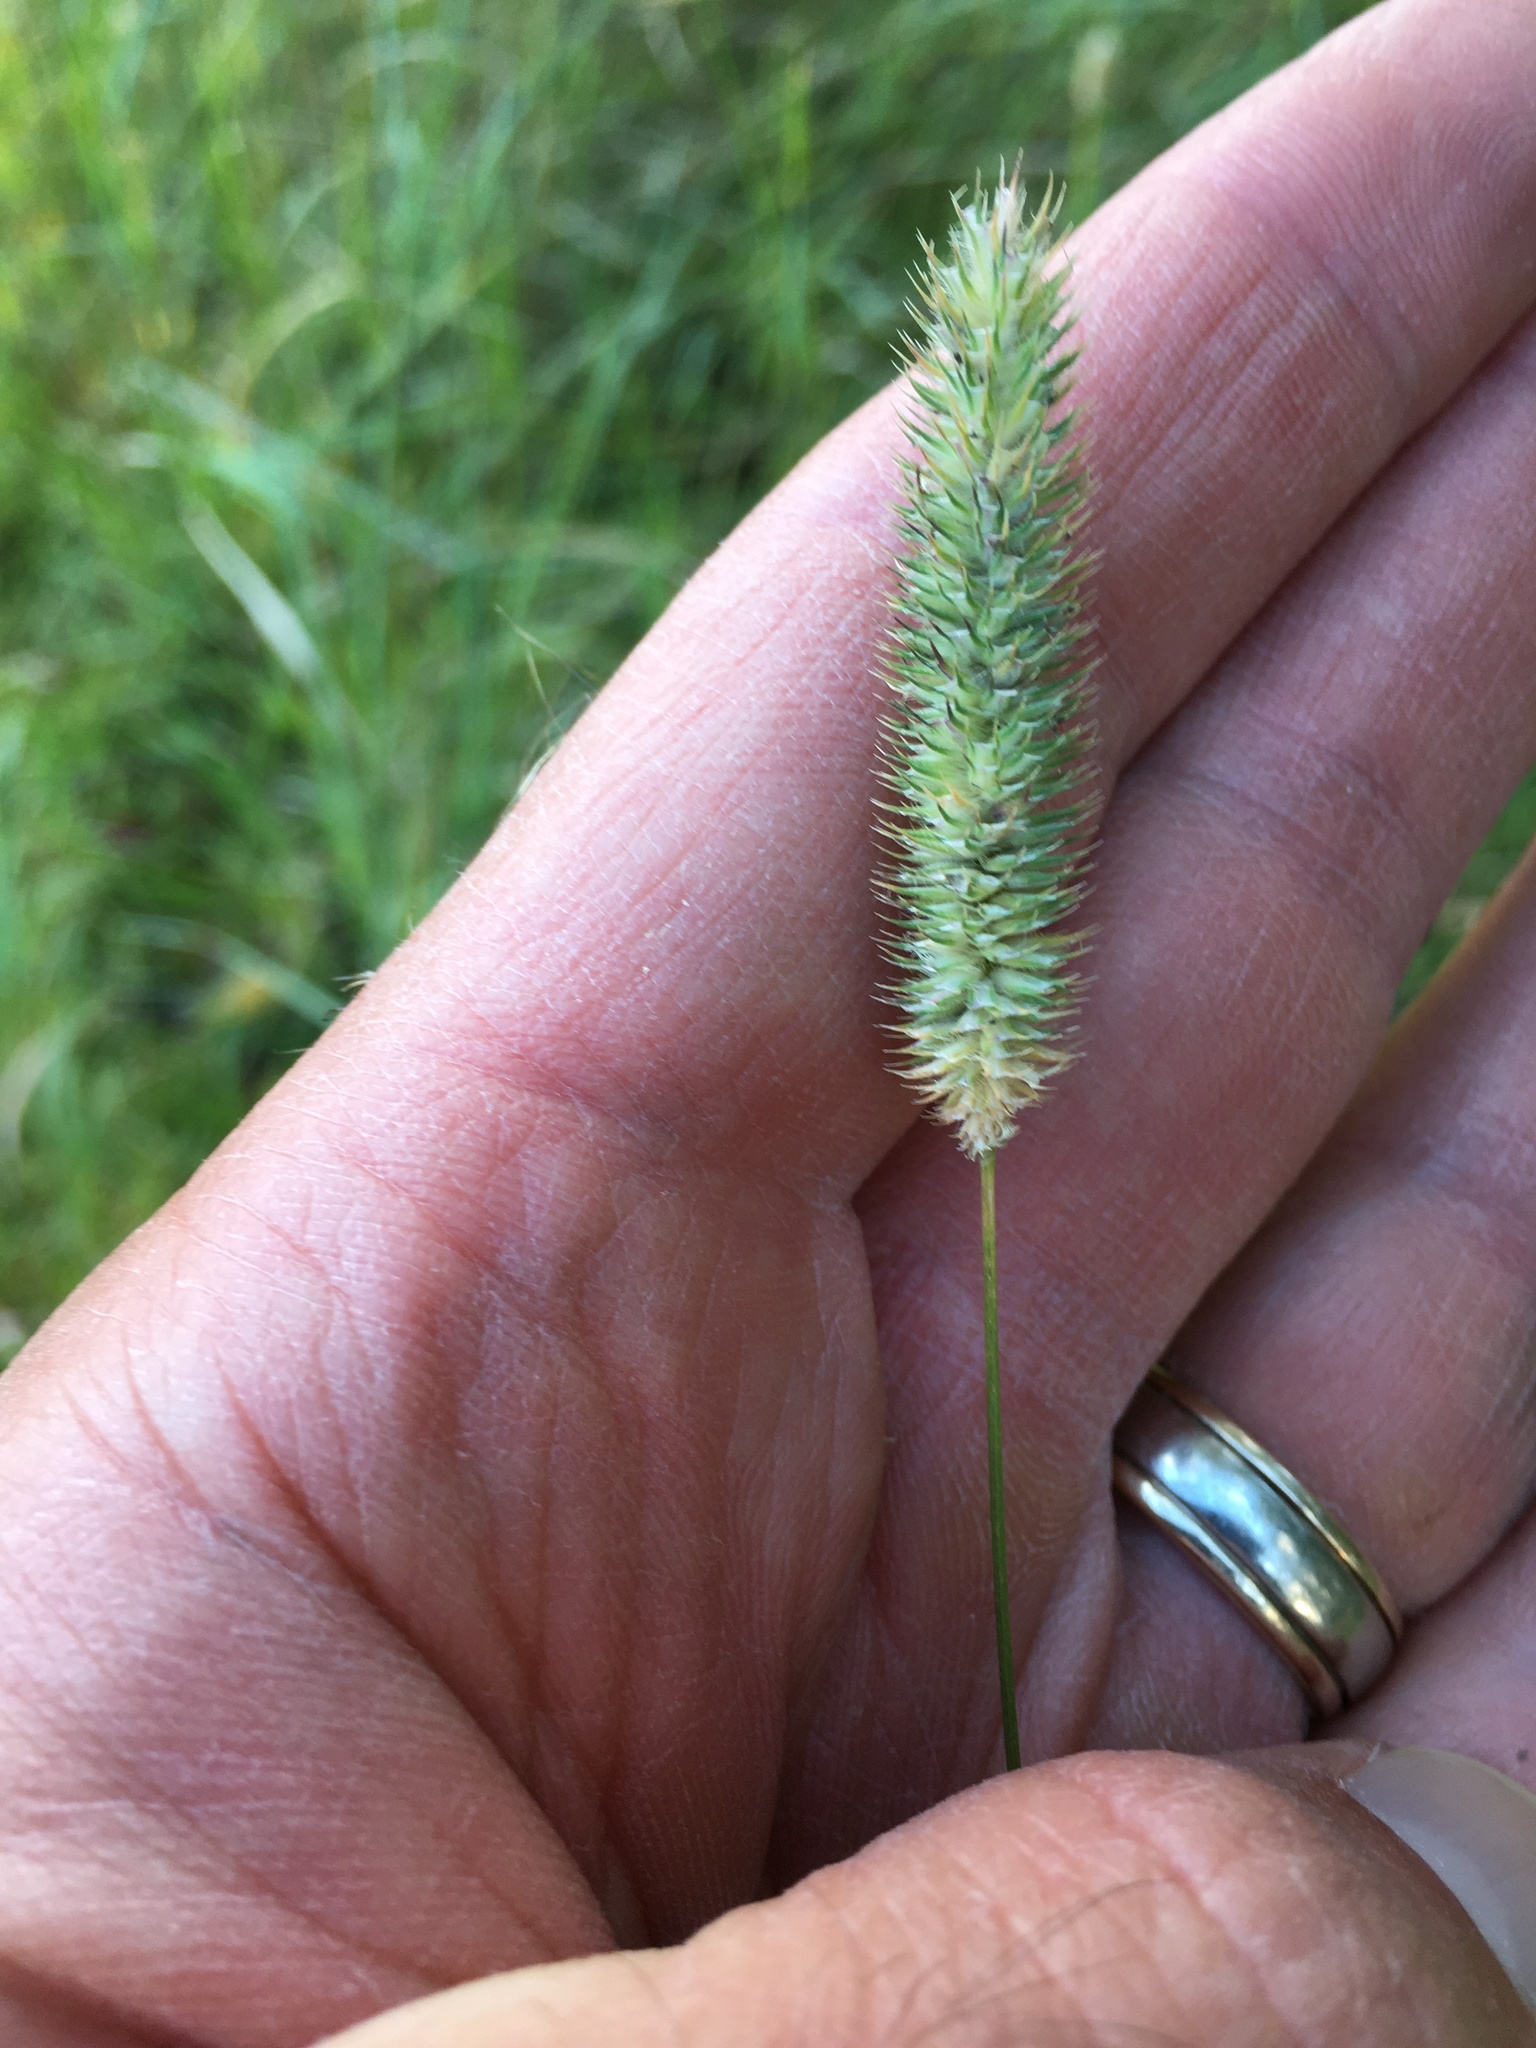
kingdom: Plantae
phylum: Tracheophyta
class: Liliopsida
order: Poales
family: Poaceae
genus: Phleum
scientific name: Phleum pratense
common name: Timothy grass
